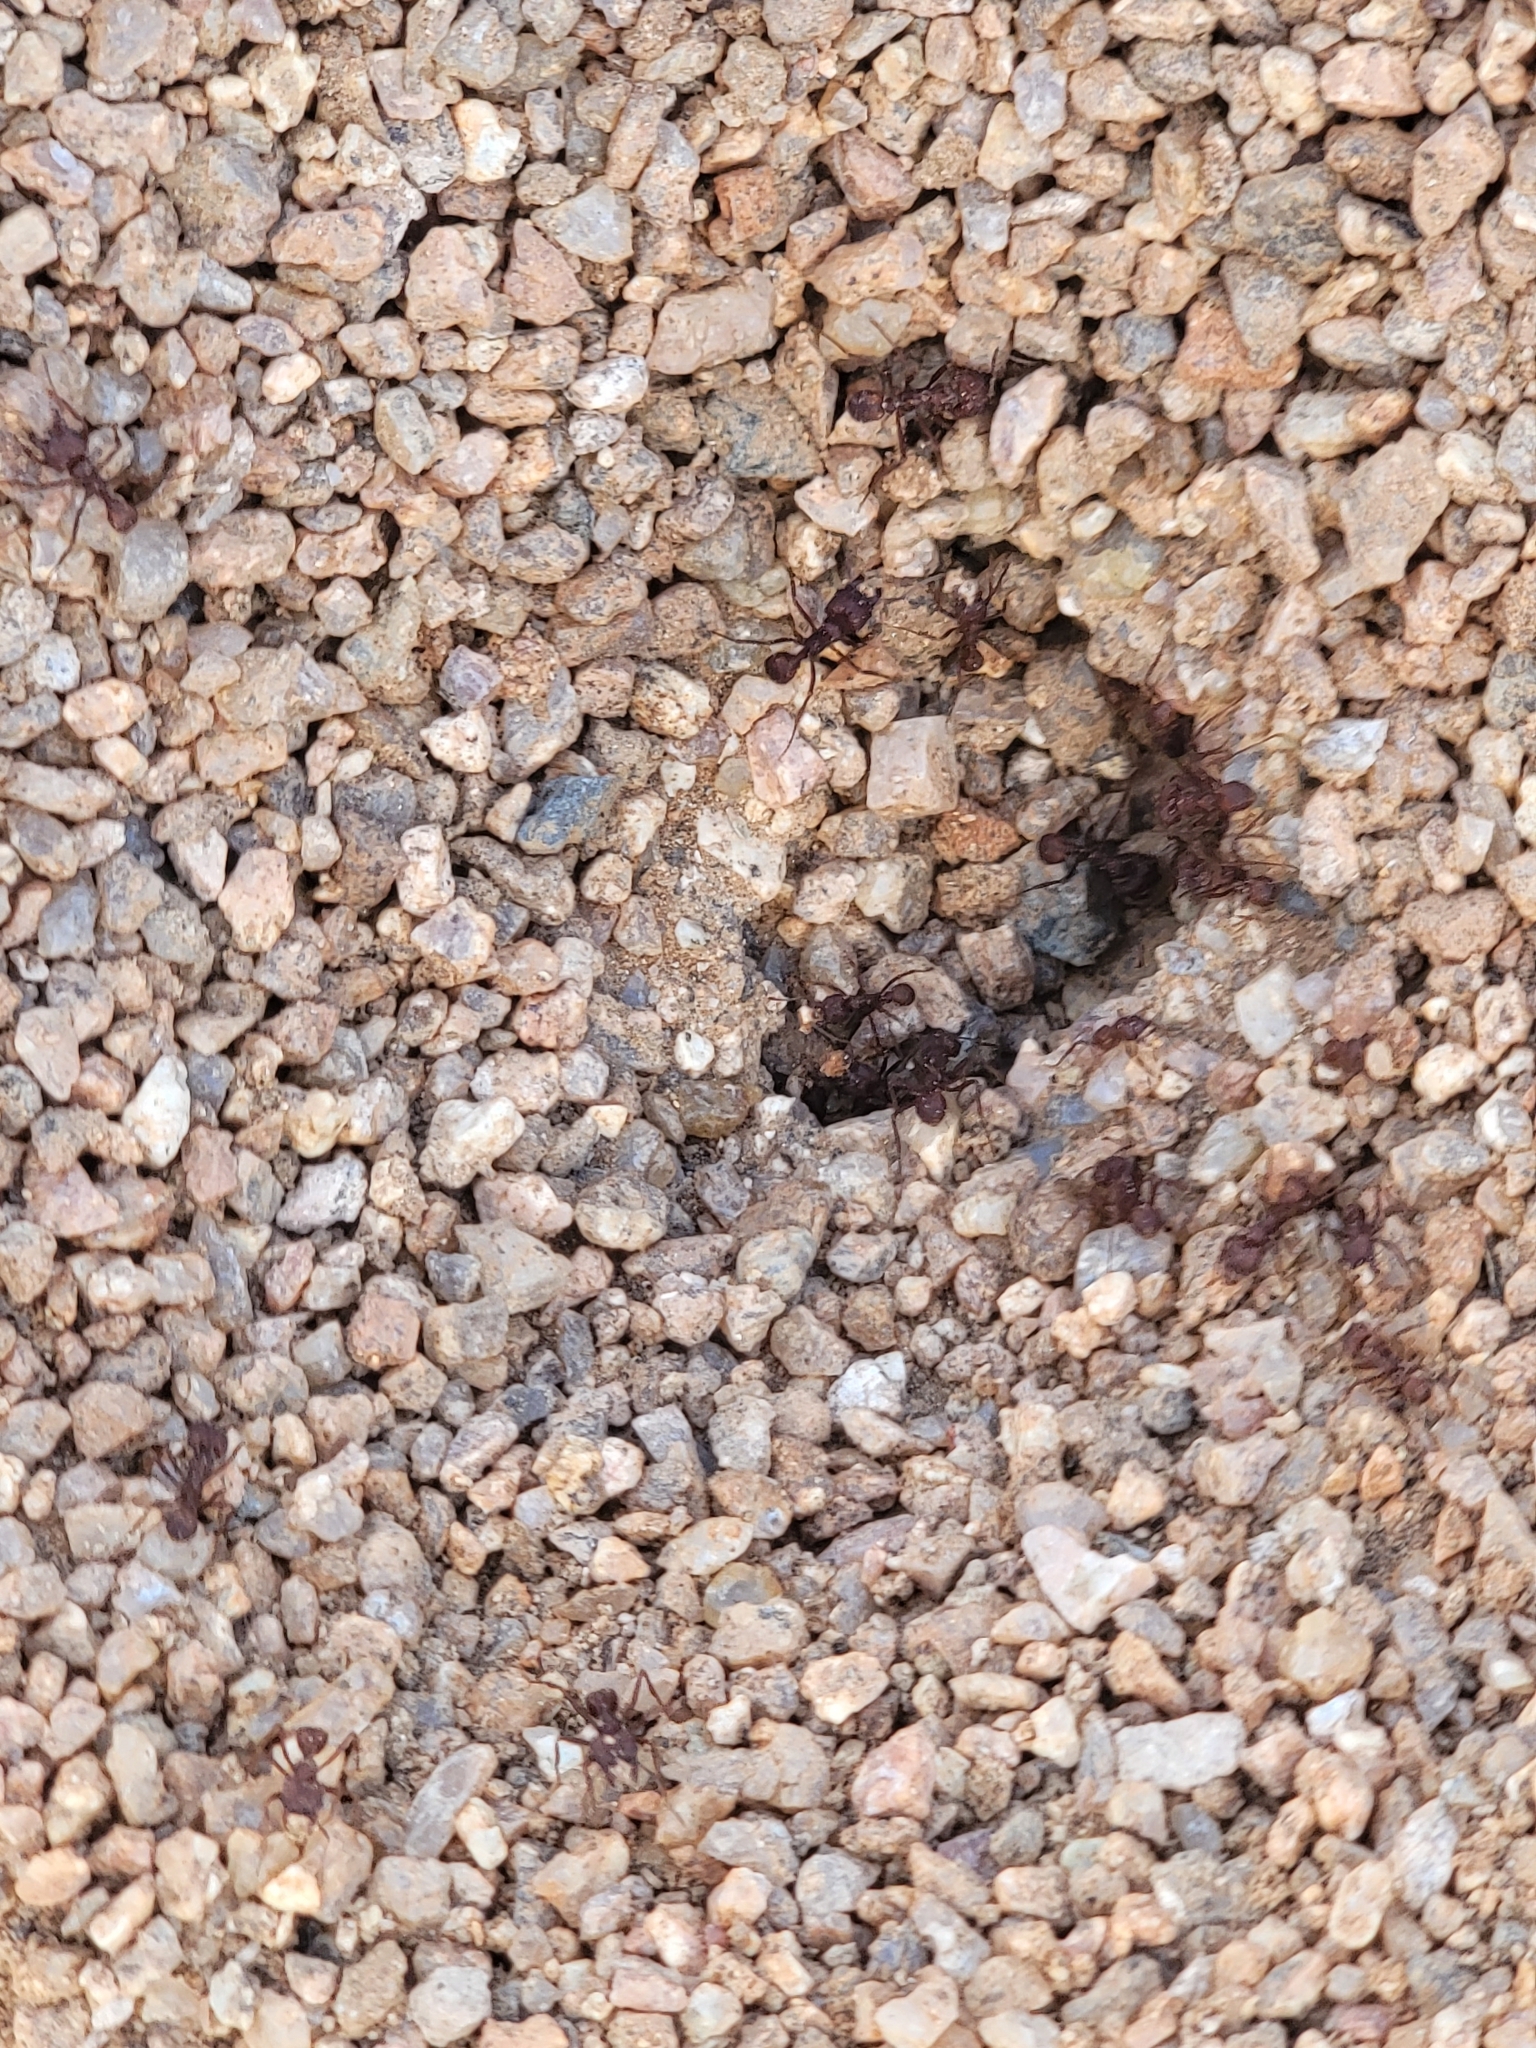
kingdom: Animalia
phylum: Arthropoda
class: Insecta
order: Hymenoptera
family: Formicidae
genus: Acromyrmex
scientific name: Acromyrmex versicolor
